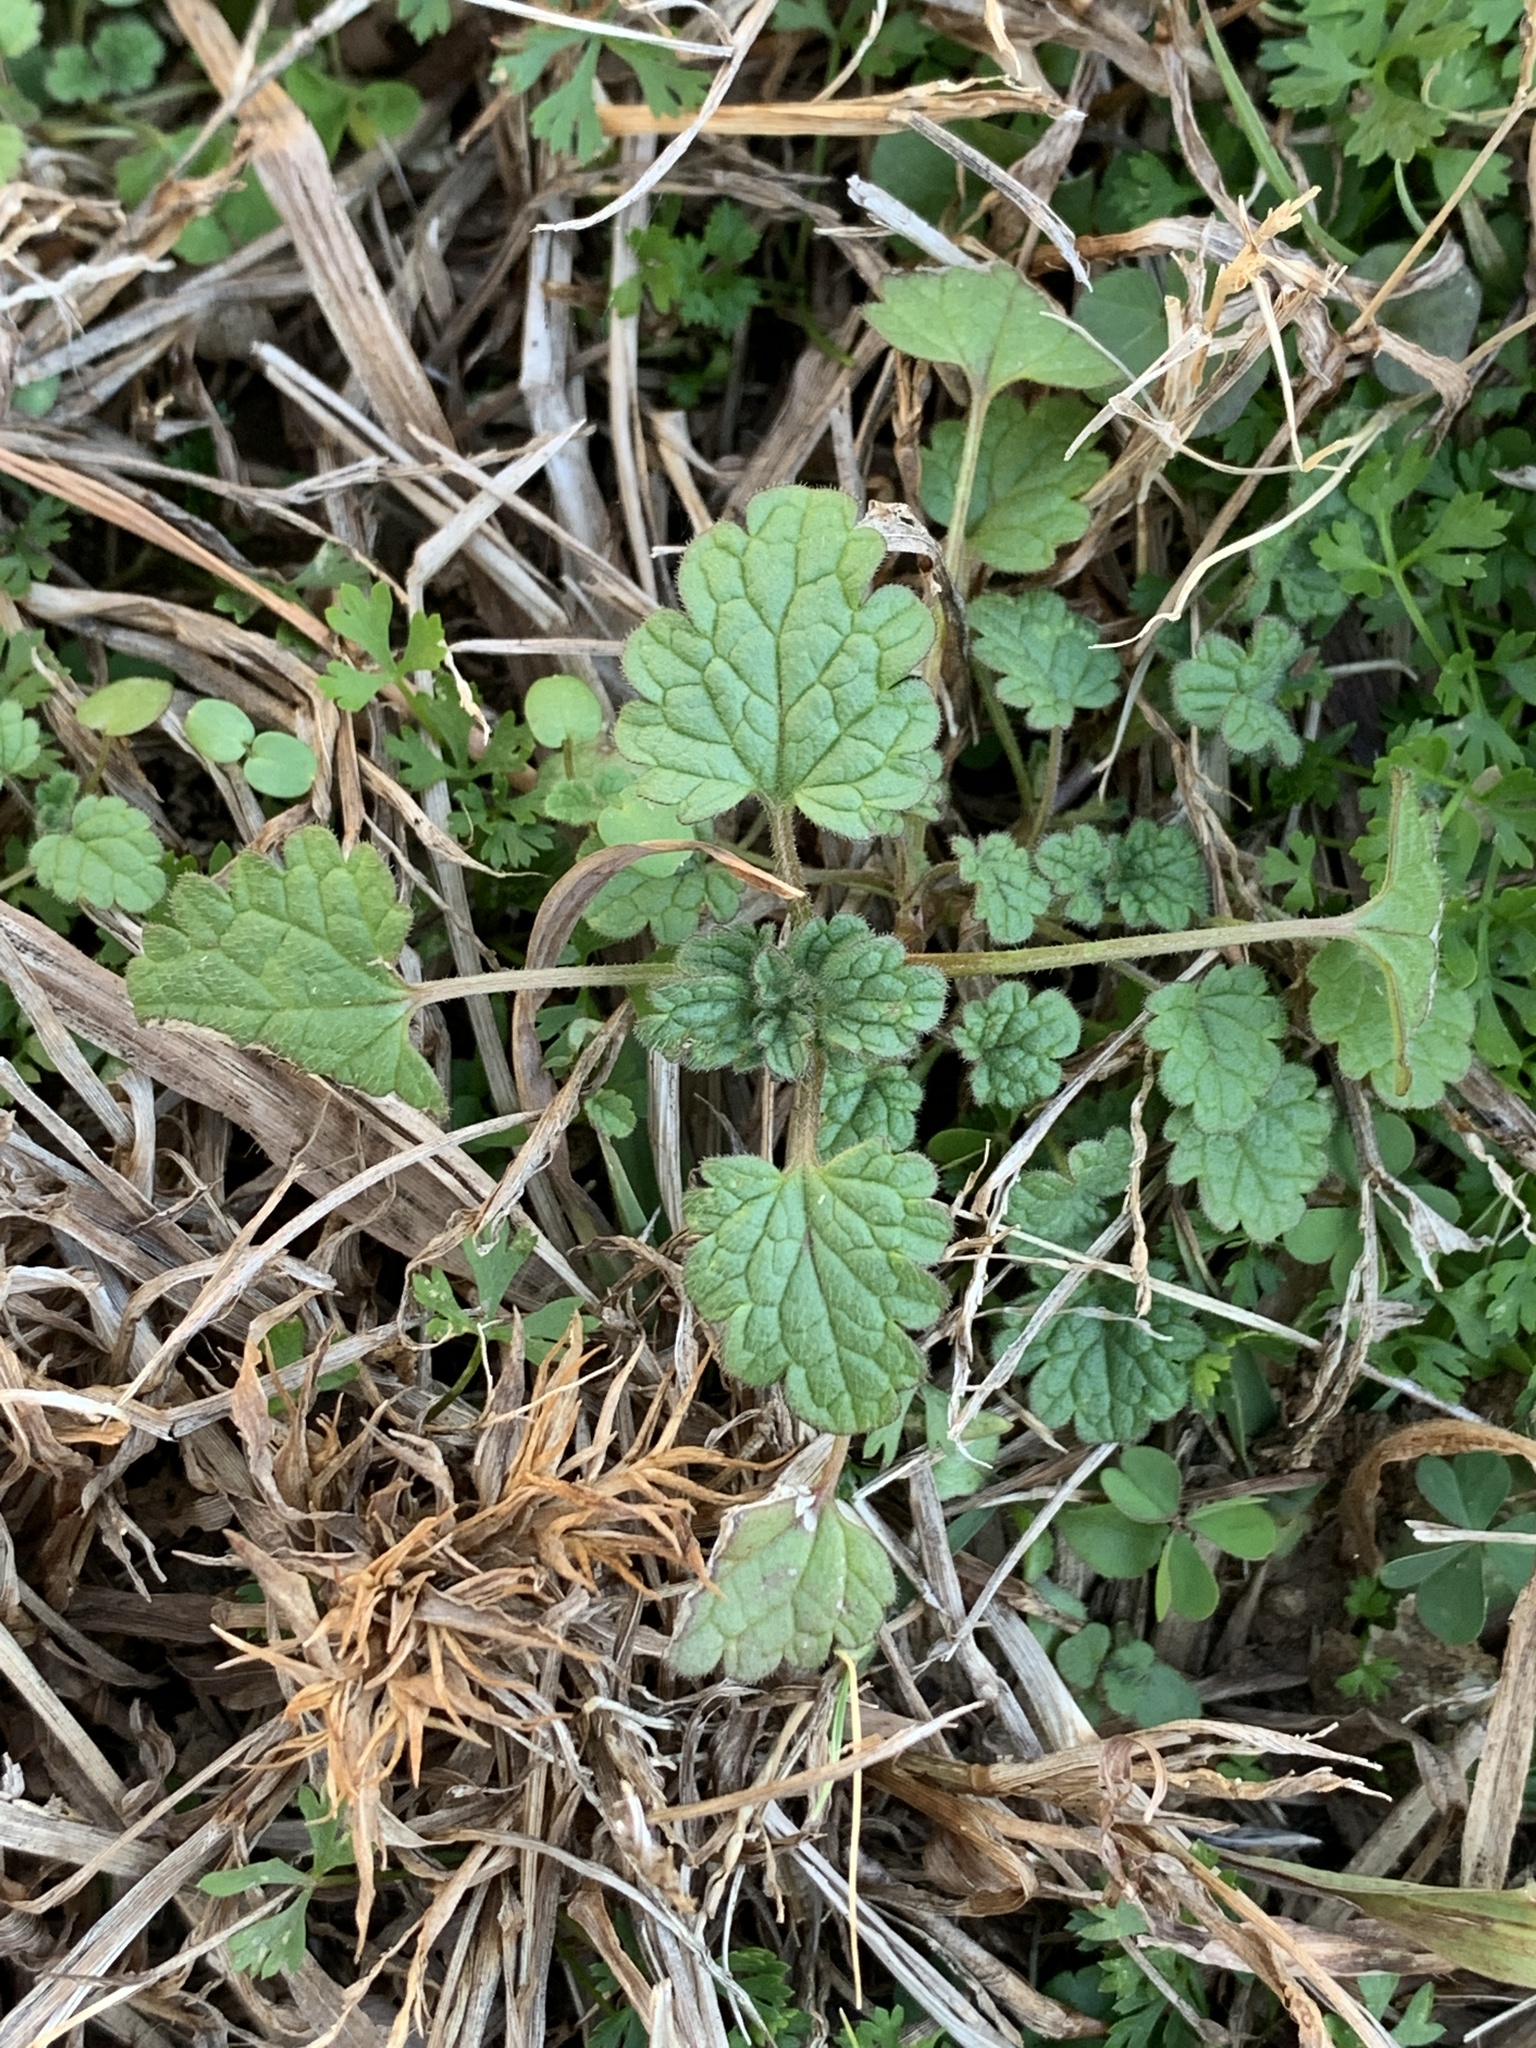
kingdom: Plantae
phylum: Tracheophyta
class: Magnoliopsida
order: Lamiales
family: Lamiaceae
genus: Lamium
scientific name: Lamium amplexicaule
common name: Henbit dead-nettle
